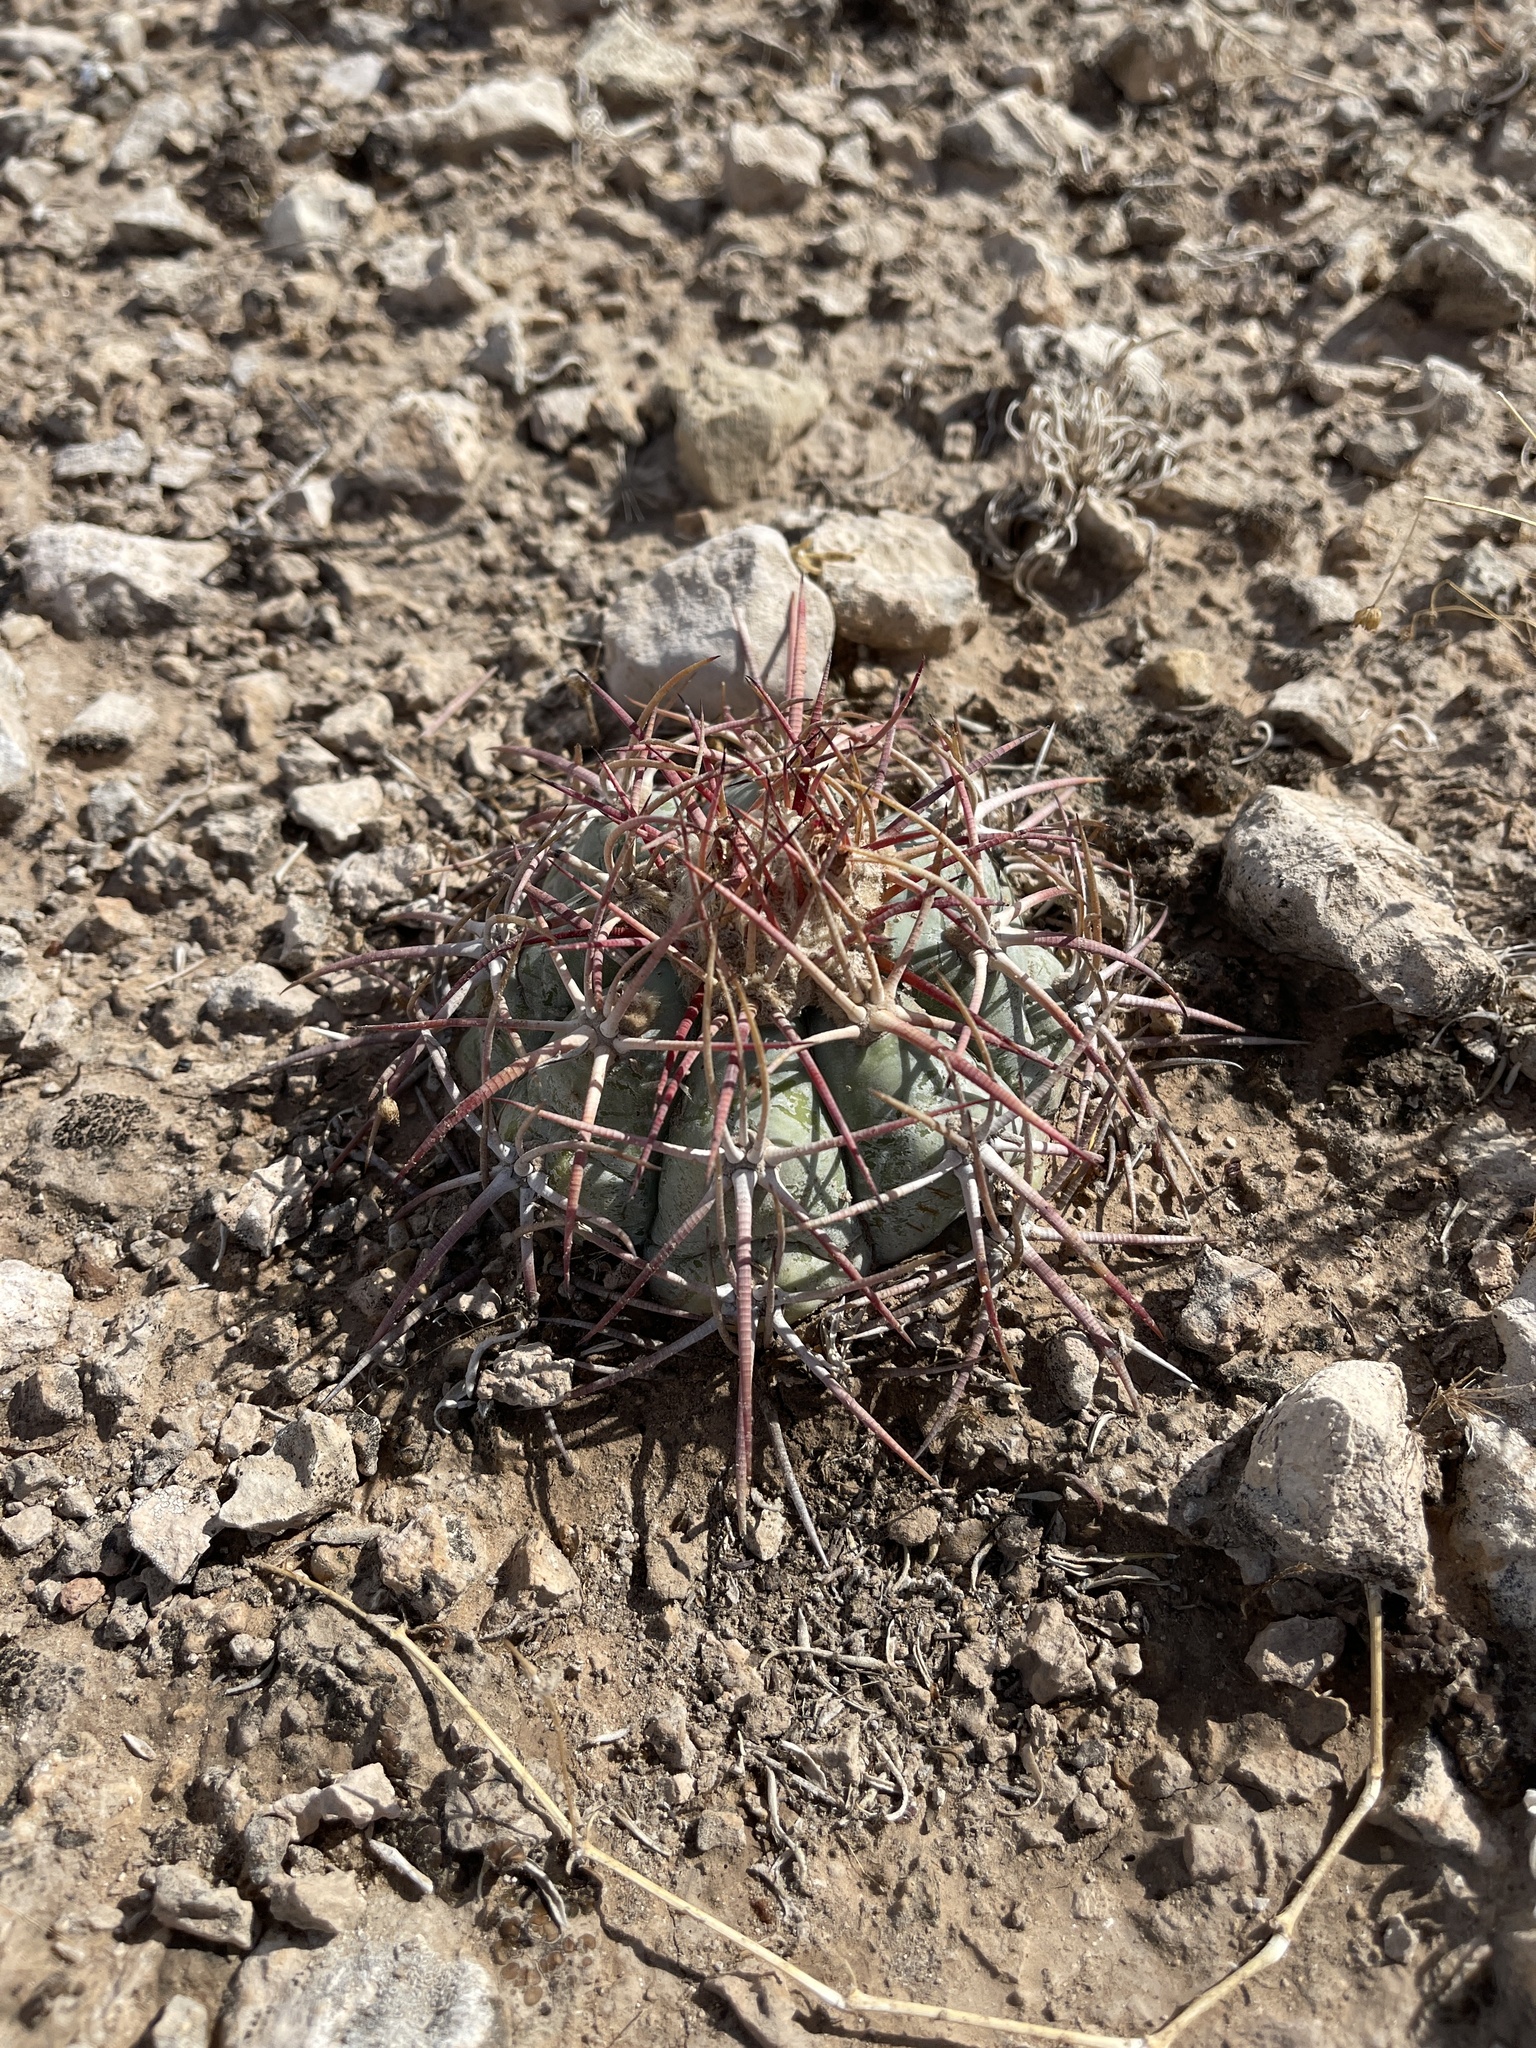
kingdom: Plantae
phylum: Tracheophyta
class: Magnoliopsida
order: Caryophyllales
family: Cactaceae
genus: Echinocactus
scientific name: Echinocactus horizonthalonius
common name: Devilshead
